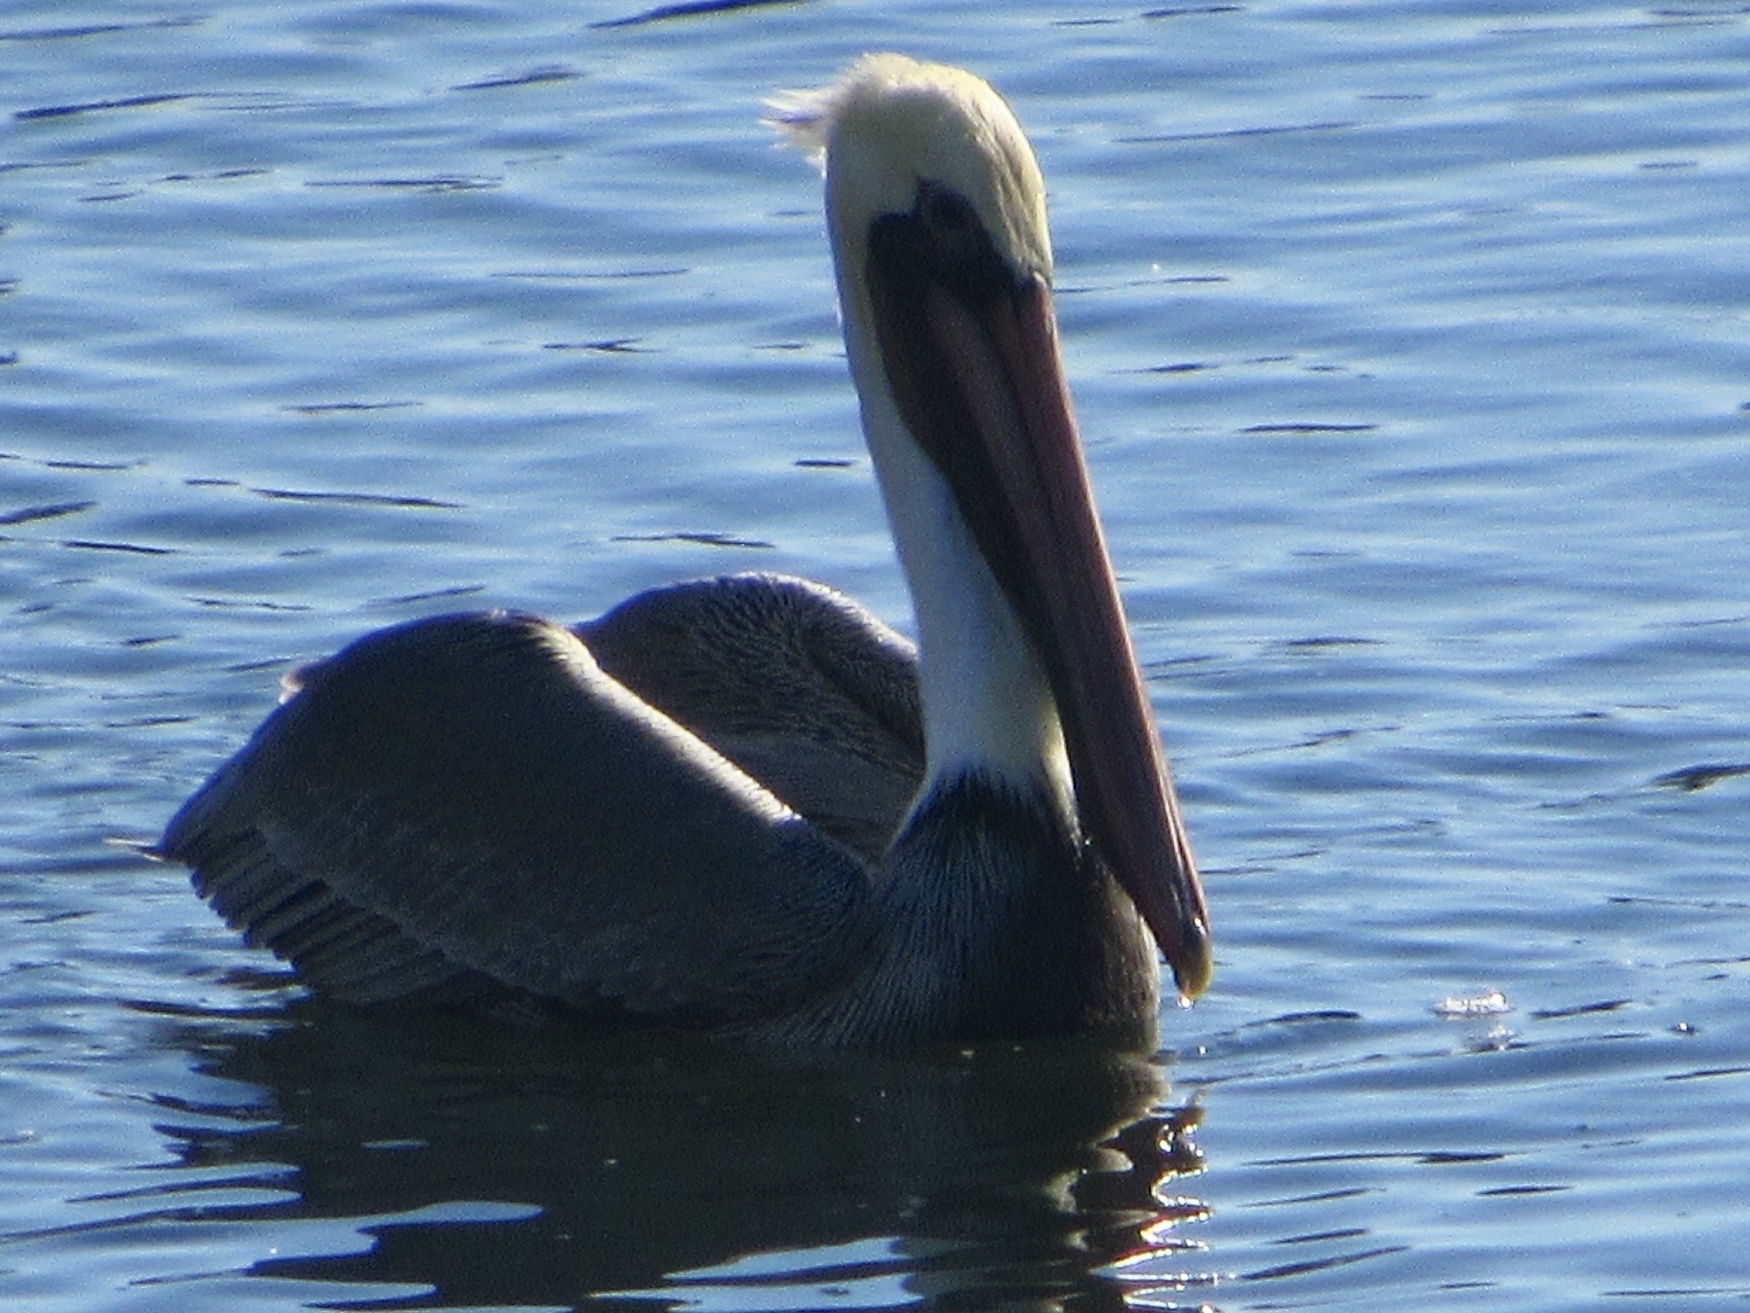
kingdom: Animalia
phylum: Chordata
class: Aves
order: Pelecaniformes
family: Pelecanidae
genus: Pelecanus
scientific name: Pelecanus occidentalis
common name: Brown pelican
